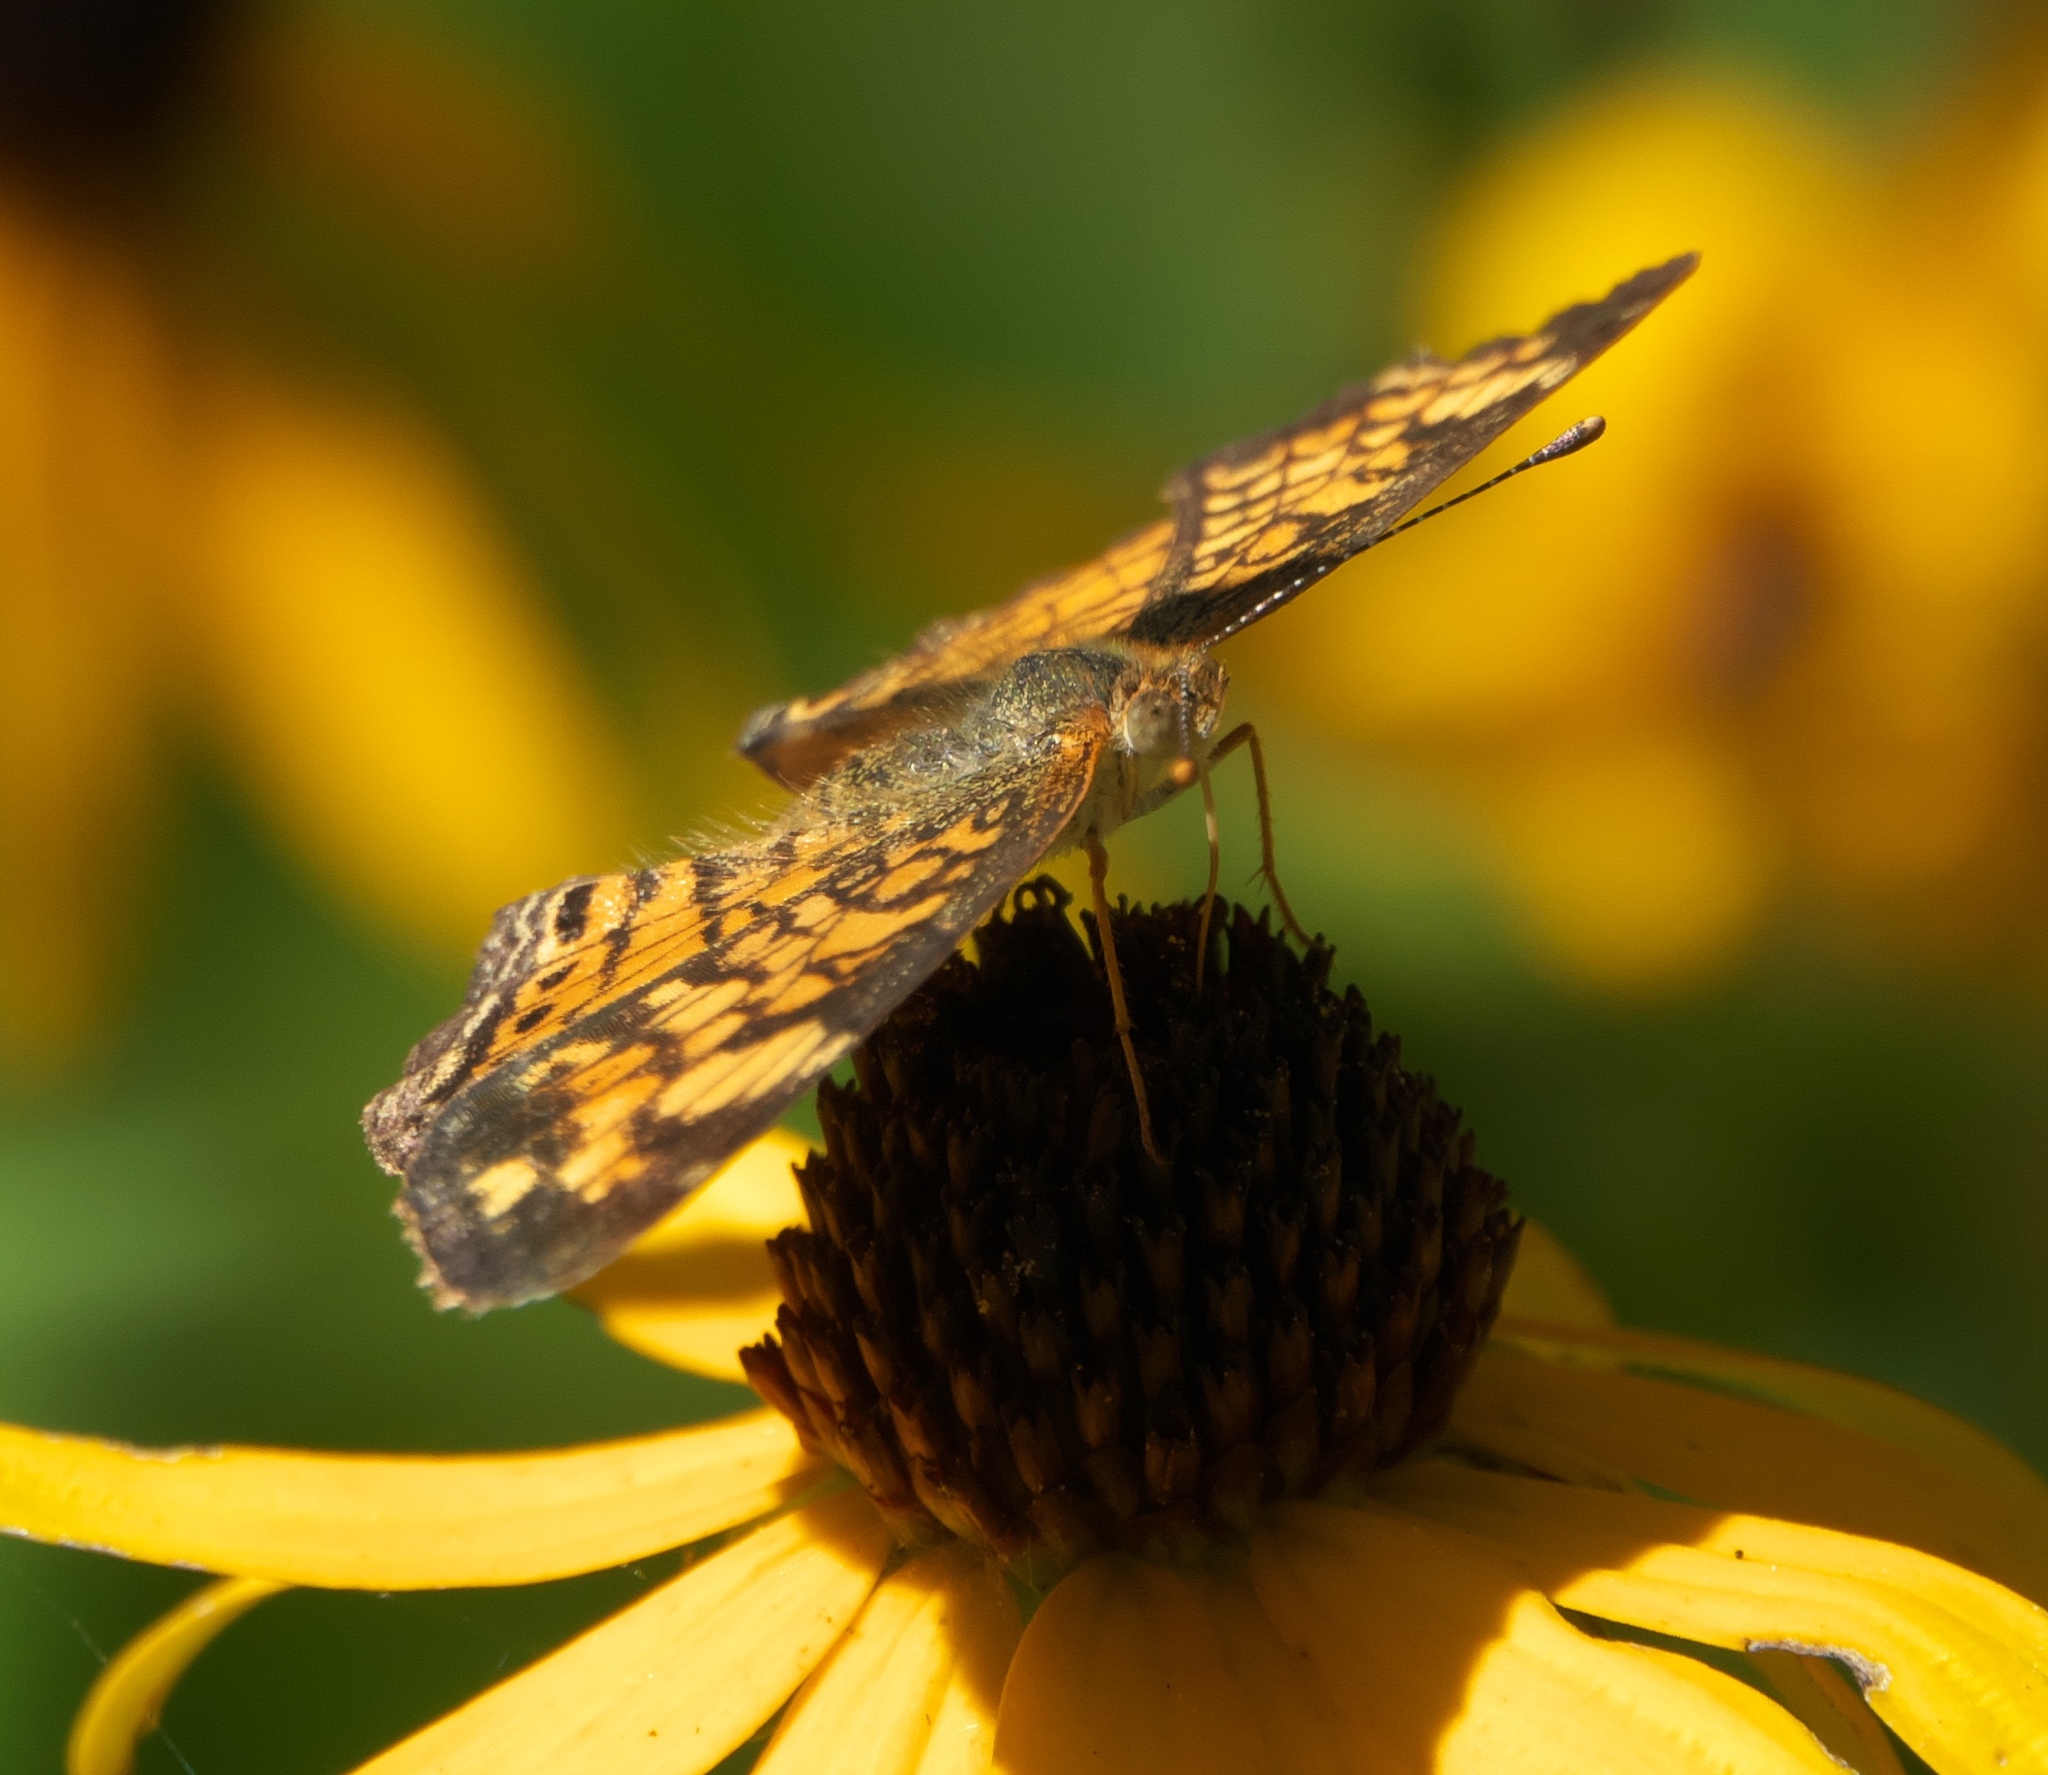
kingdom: Animalia
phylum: Arthropoda
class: Insecta
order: Lepidoptera
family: Nymphalidae
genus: Phyciodes
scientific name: Phyciodes tharos
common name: Pearl crescent
